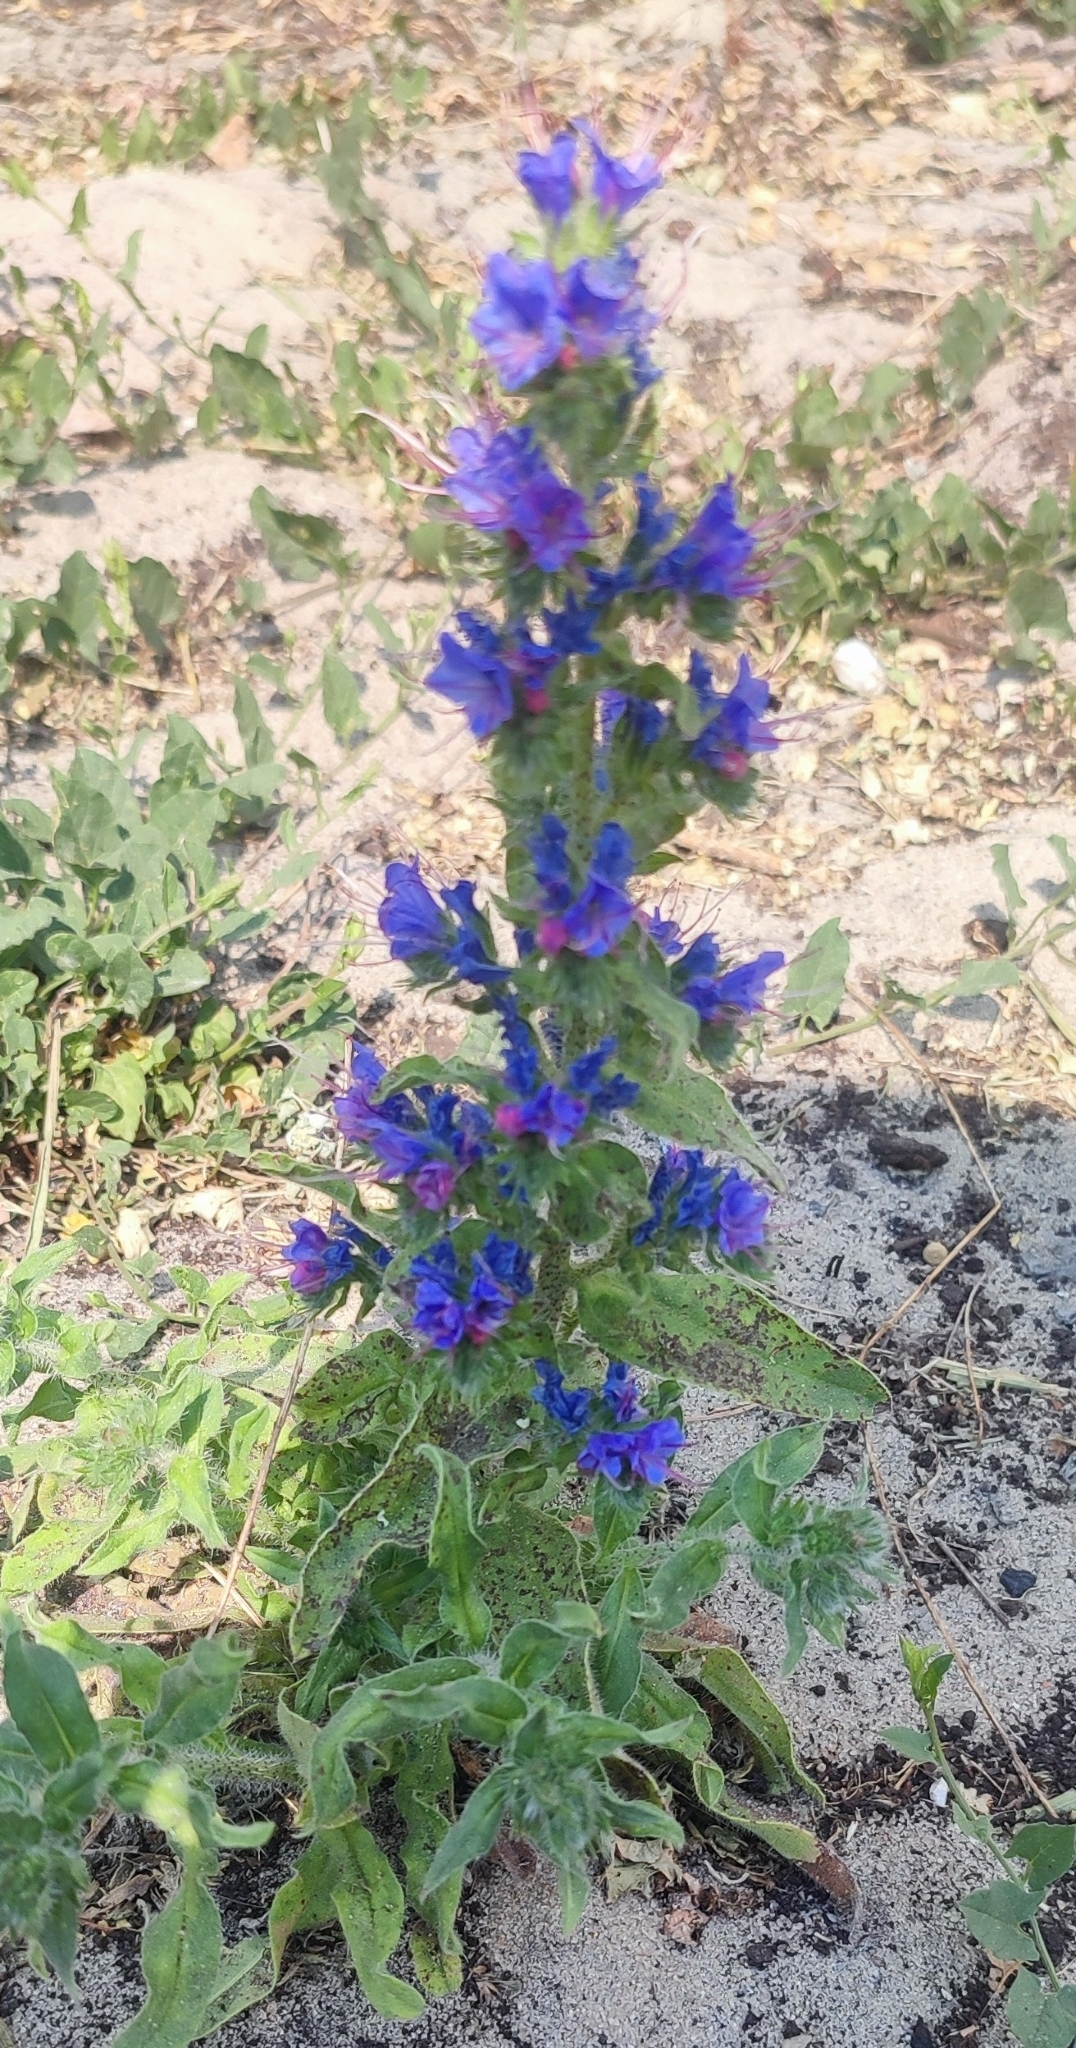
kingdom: Plantae
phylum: Tracheophyta
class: Magnoliopsida
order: Boraginales
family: Boraginaceae
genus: Echium
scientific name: Echium vulgare
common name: Common viper's bugloss
